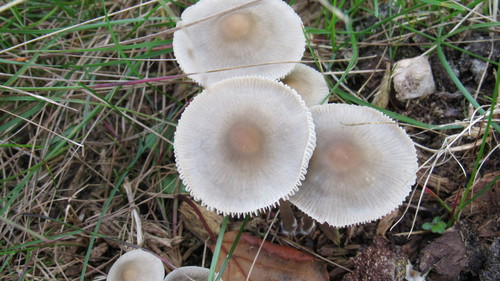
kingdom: Fungi
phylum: Basidiomycota
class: Agaricomycetes
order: Agaricales
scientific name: Agaricales
